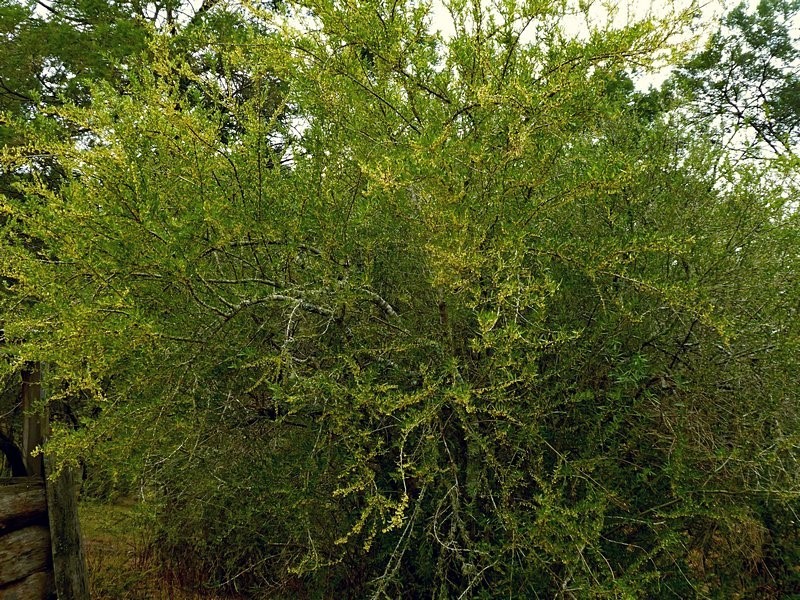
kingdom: Plantae
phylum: Tracheophyta
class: Magnoliopsida
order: Malpighiales
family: Violaceae
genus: Melicytus
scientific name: Melicytus dentatus
